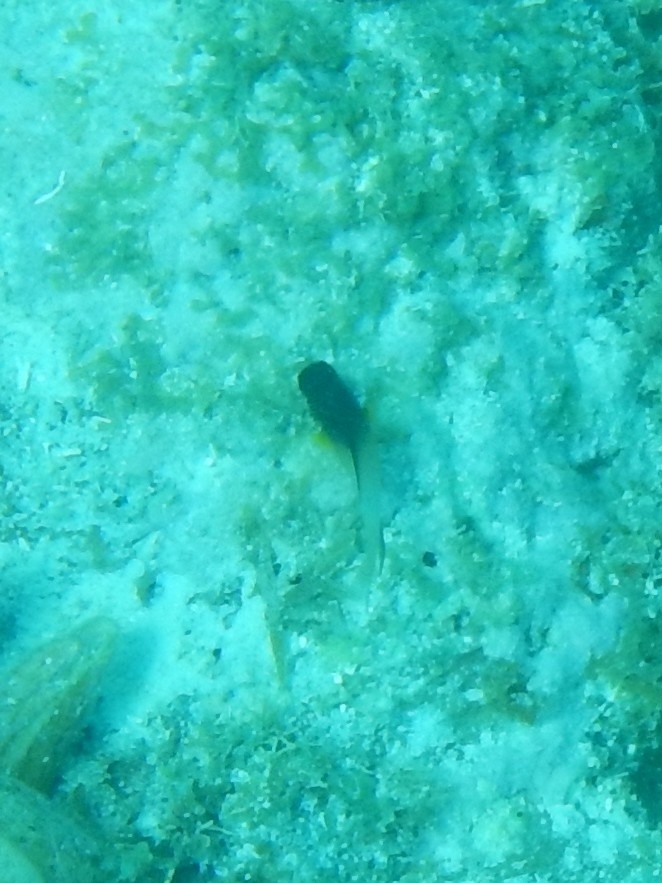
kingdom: Animalia
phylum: Chordata
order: Perciformes
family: Pomacentridae
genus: Stegastes
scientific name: Stegastes partitus
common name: Bicolor damselfish
